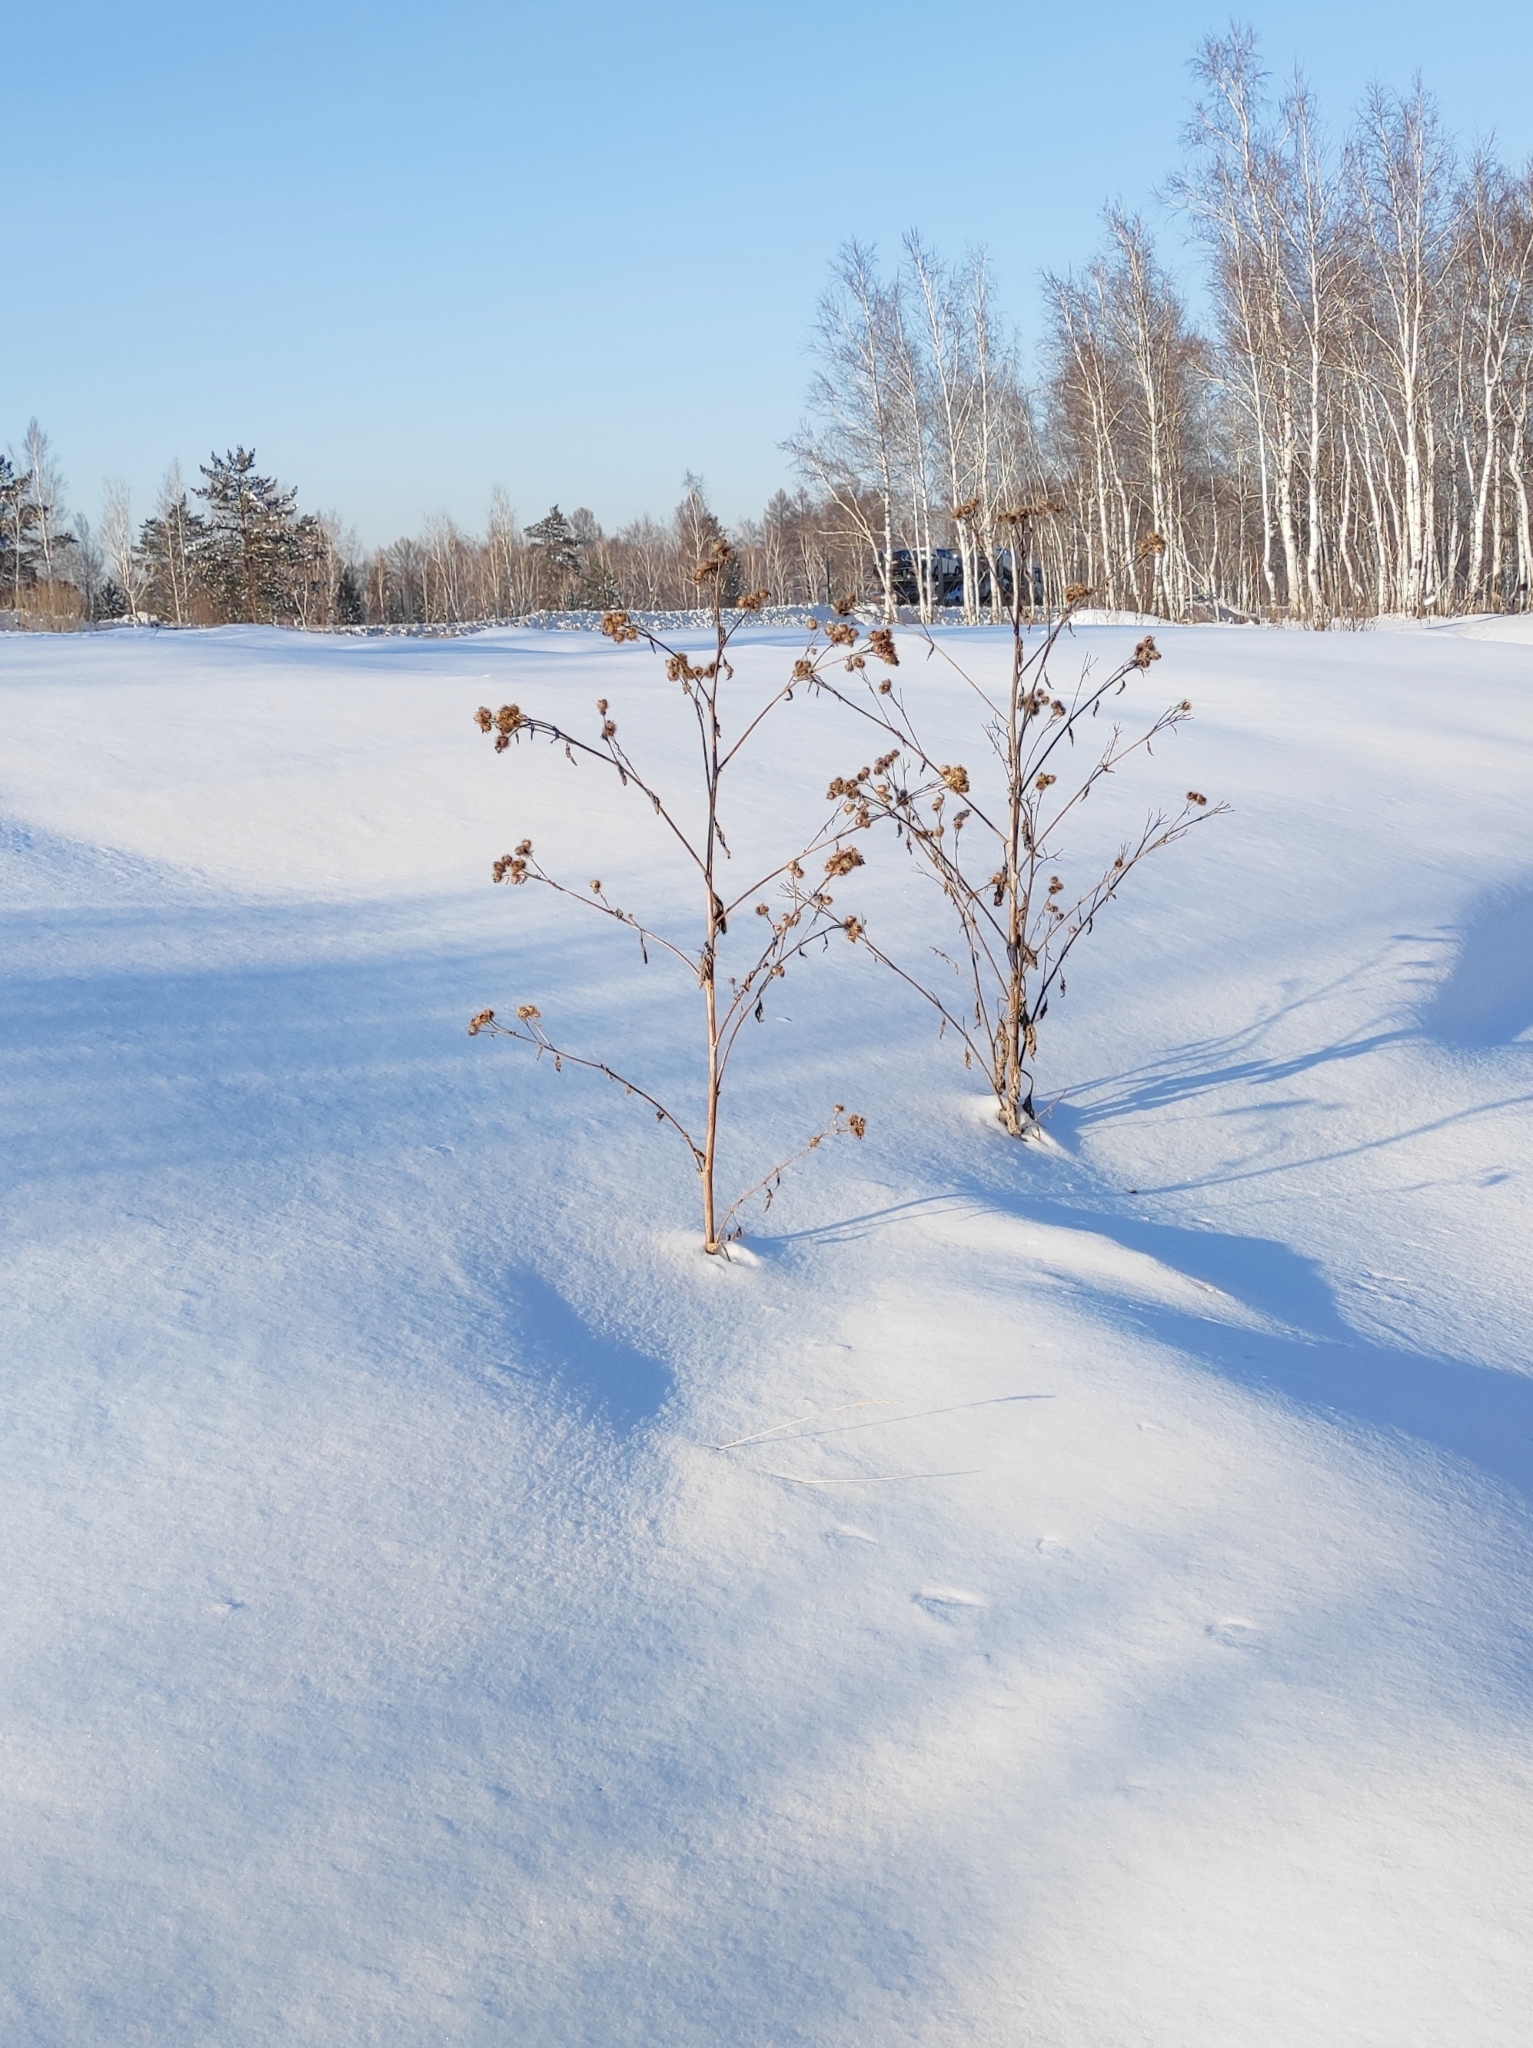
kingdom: Plantae
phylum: Tracheophyta
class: Magnoliopsida
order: Asterales
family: Asteraceae
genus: Arctium
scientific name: Arctium tomentosum
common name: Woolly burdock
